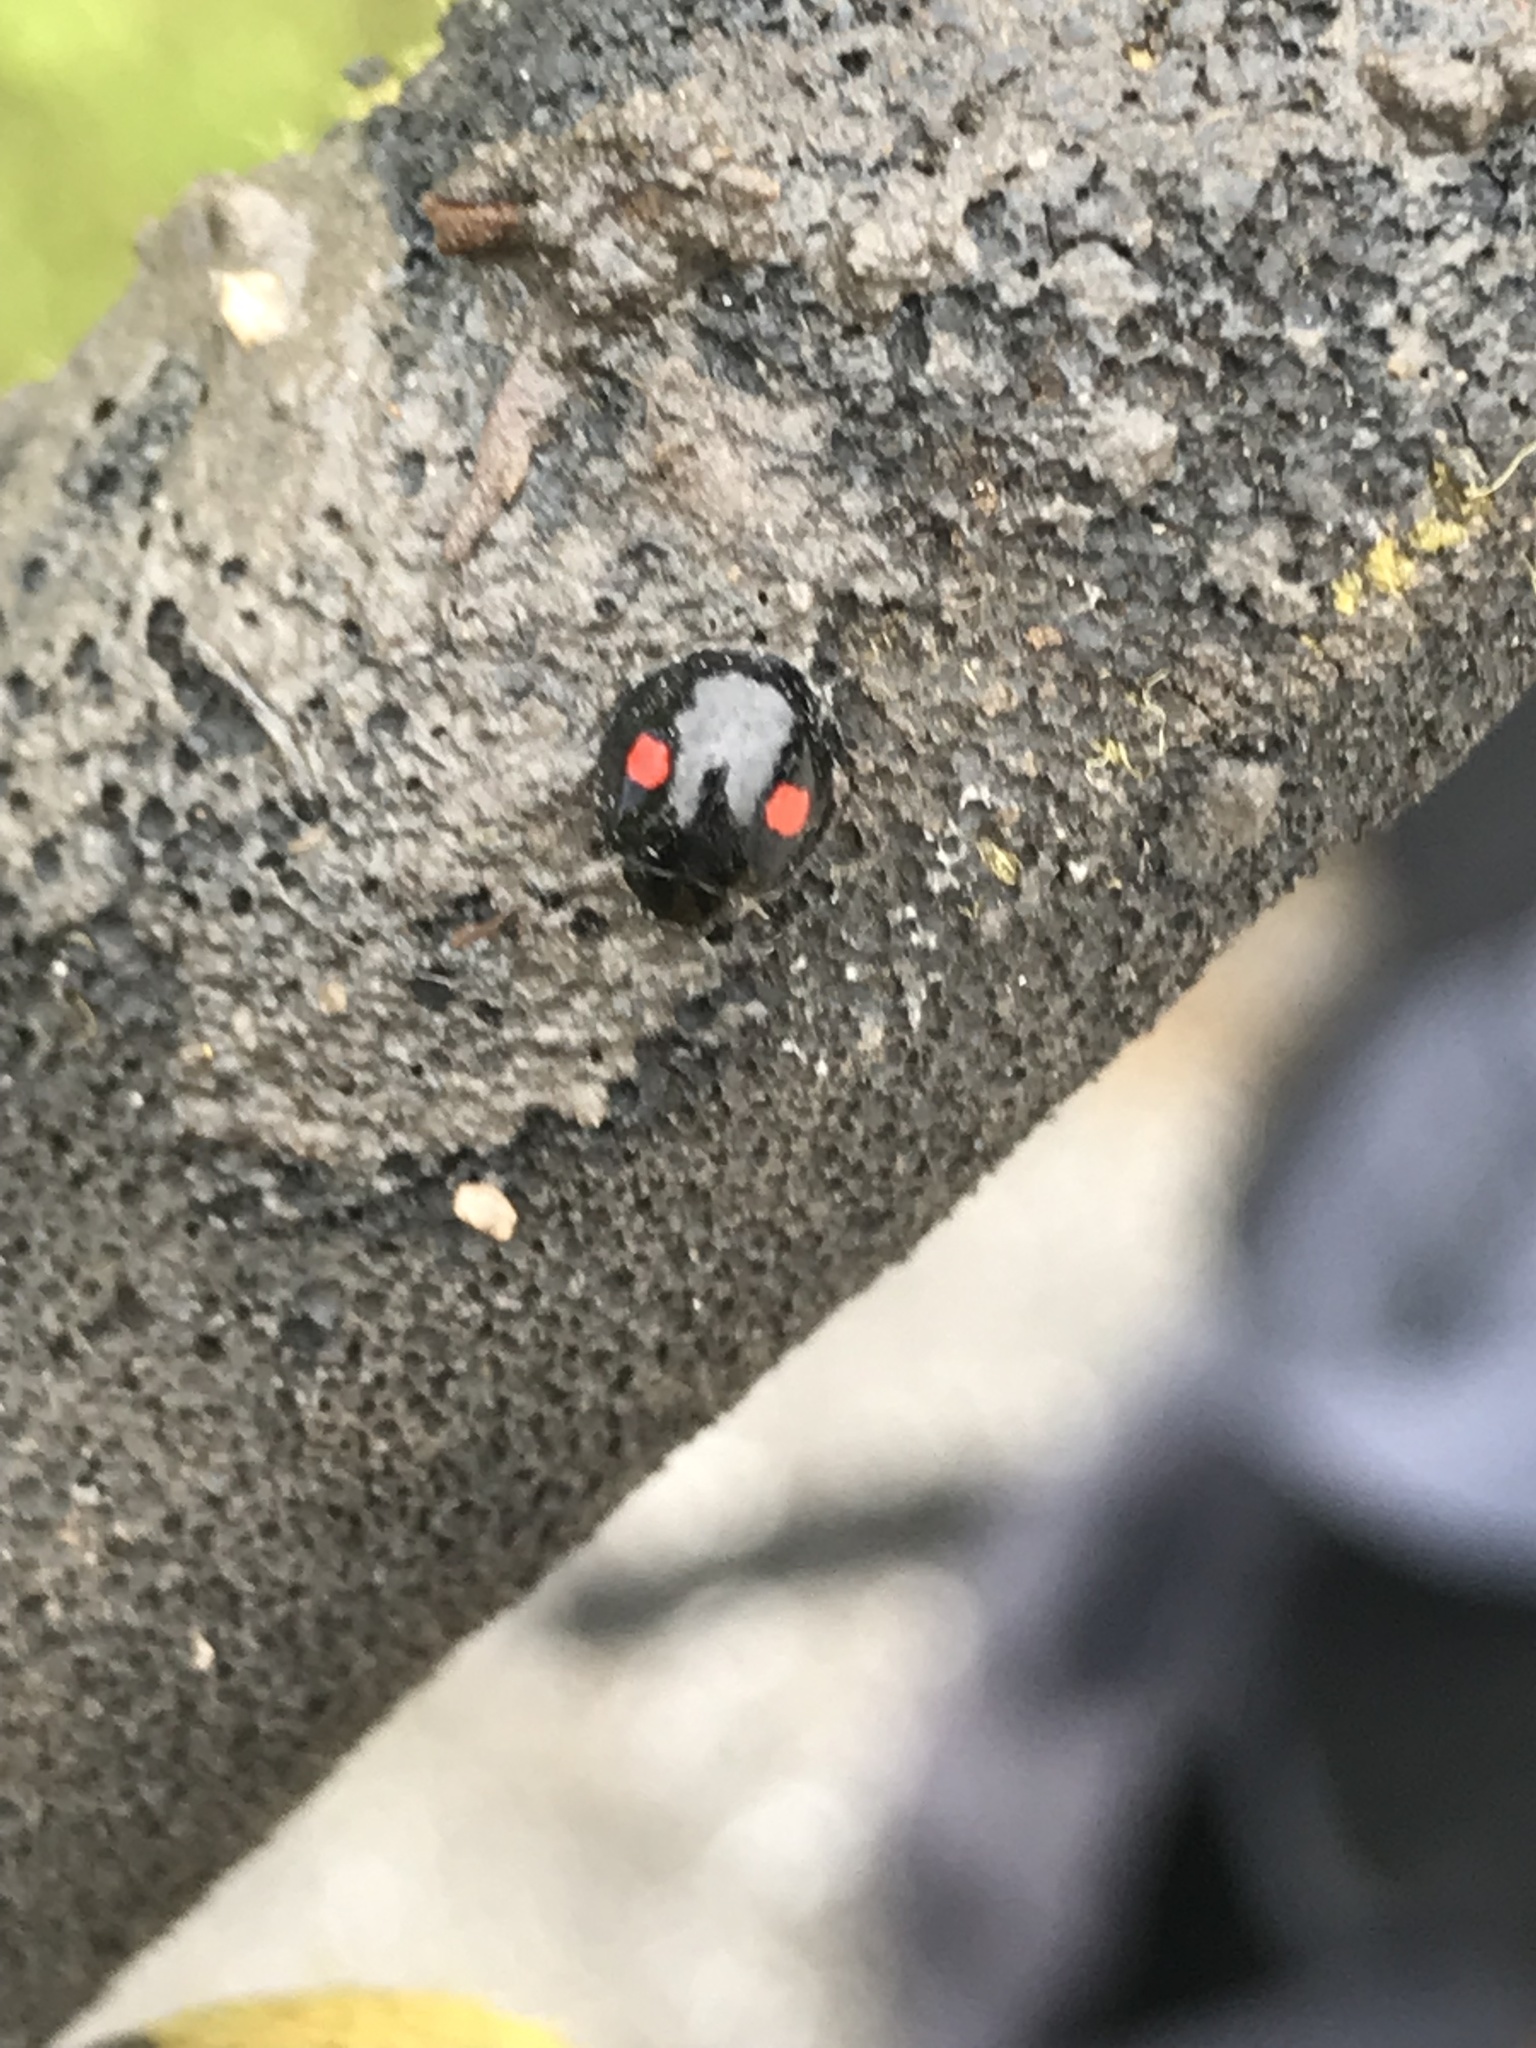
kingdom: Animalia
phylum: Arthropoda
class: Insecta
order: Coleoptera
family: Coccinellidae
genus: Chilocorus
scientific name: Chilocorus stigma
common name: Twicestabbed lady beetle
